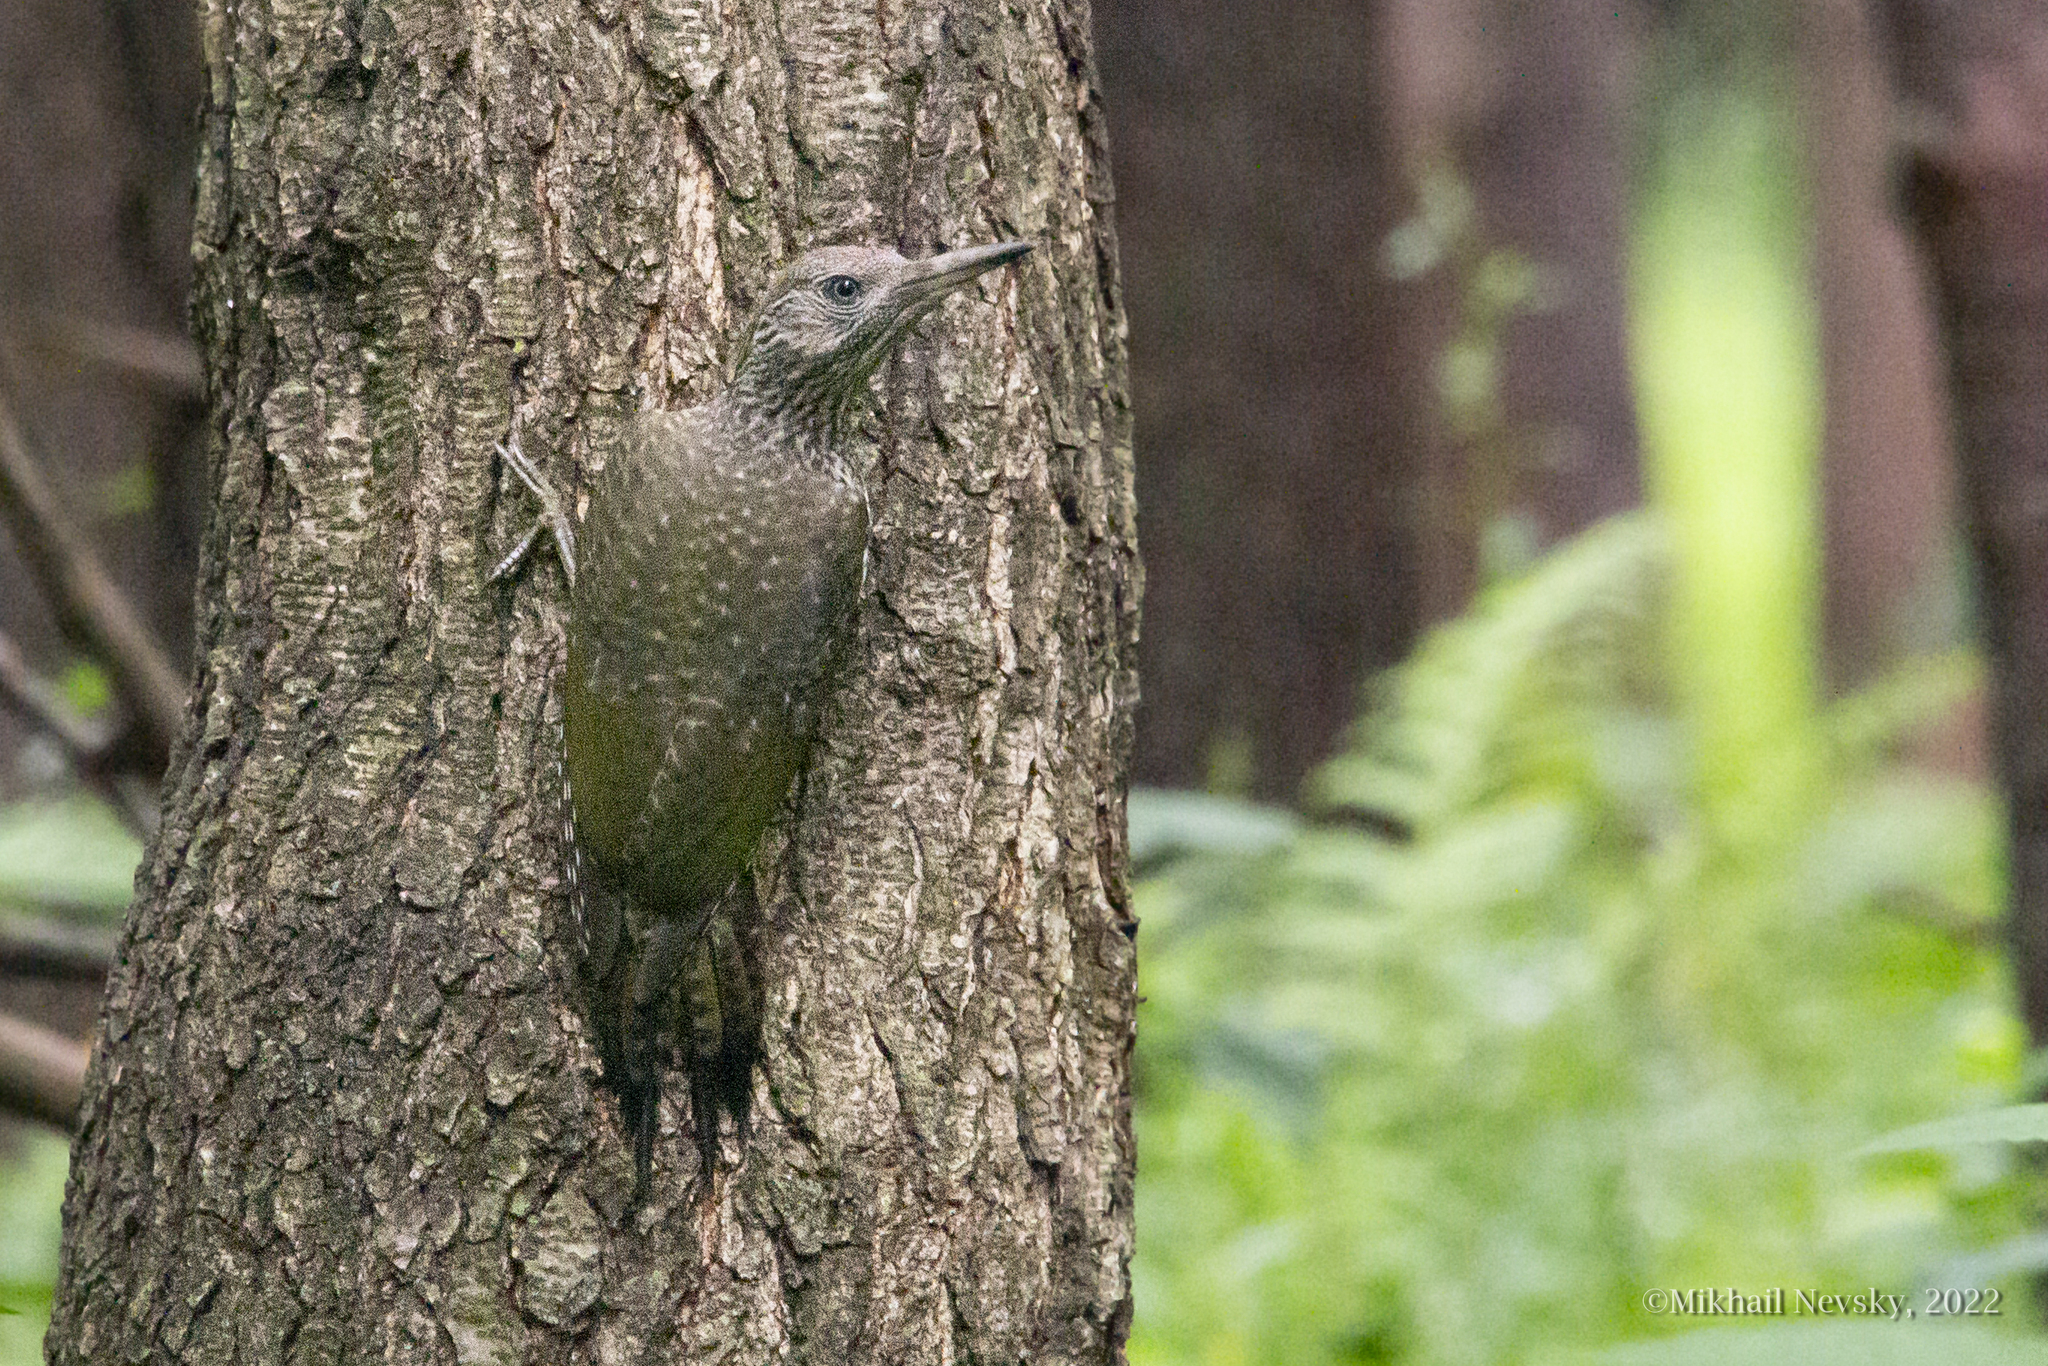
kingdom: Animalia
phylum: Chordata
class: Aves
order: Piciformes
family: Picidae
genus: Picus
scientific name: Picus viridis
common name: European green woodpecker
